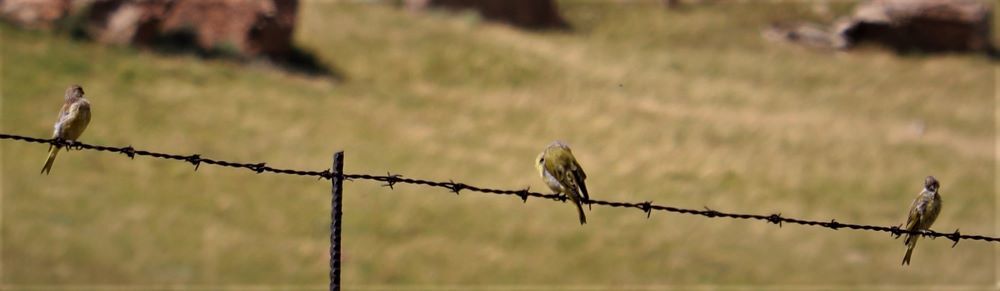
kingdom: Animalia
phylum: Chordata
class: Aves
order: Passeriformes
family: Fringillidae
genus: Serinus
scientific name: Serinus canicollis
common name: Cape canary
